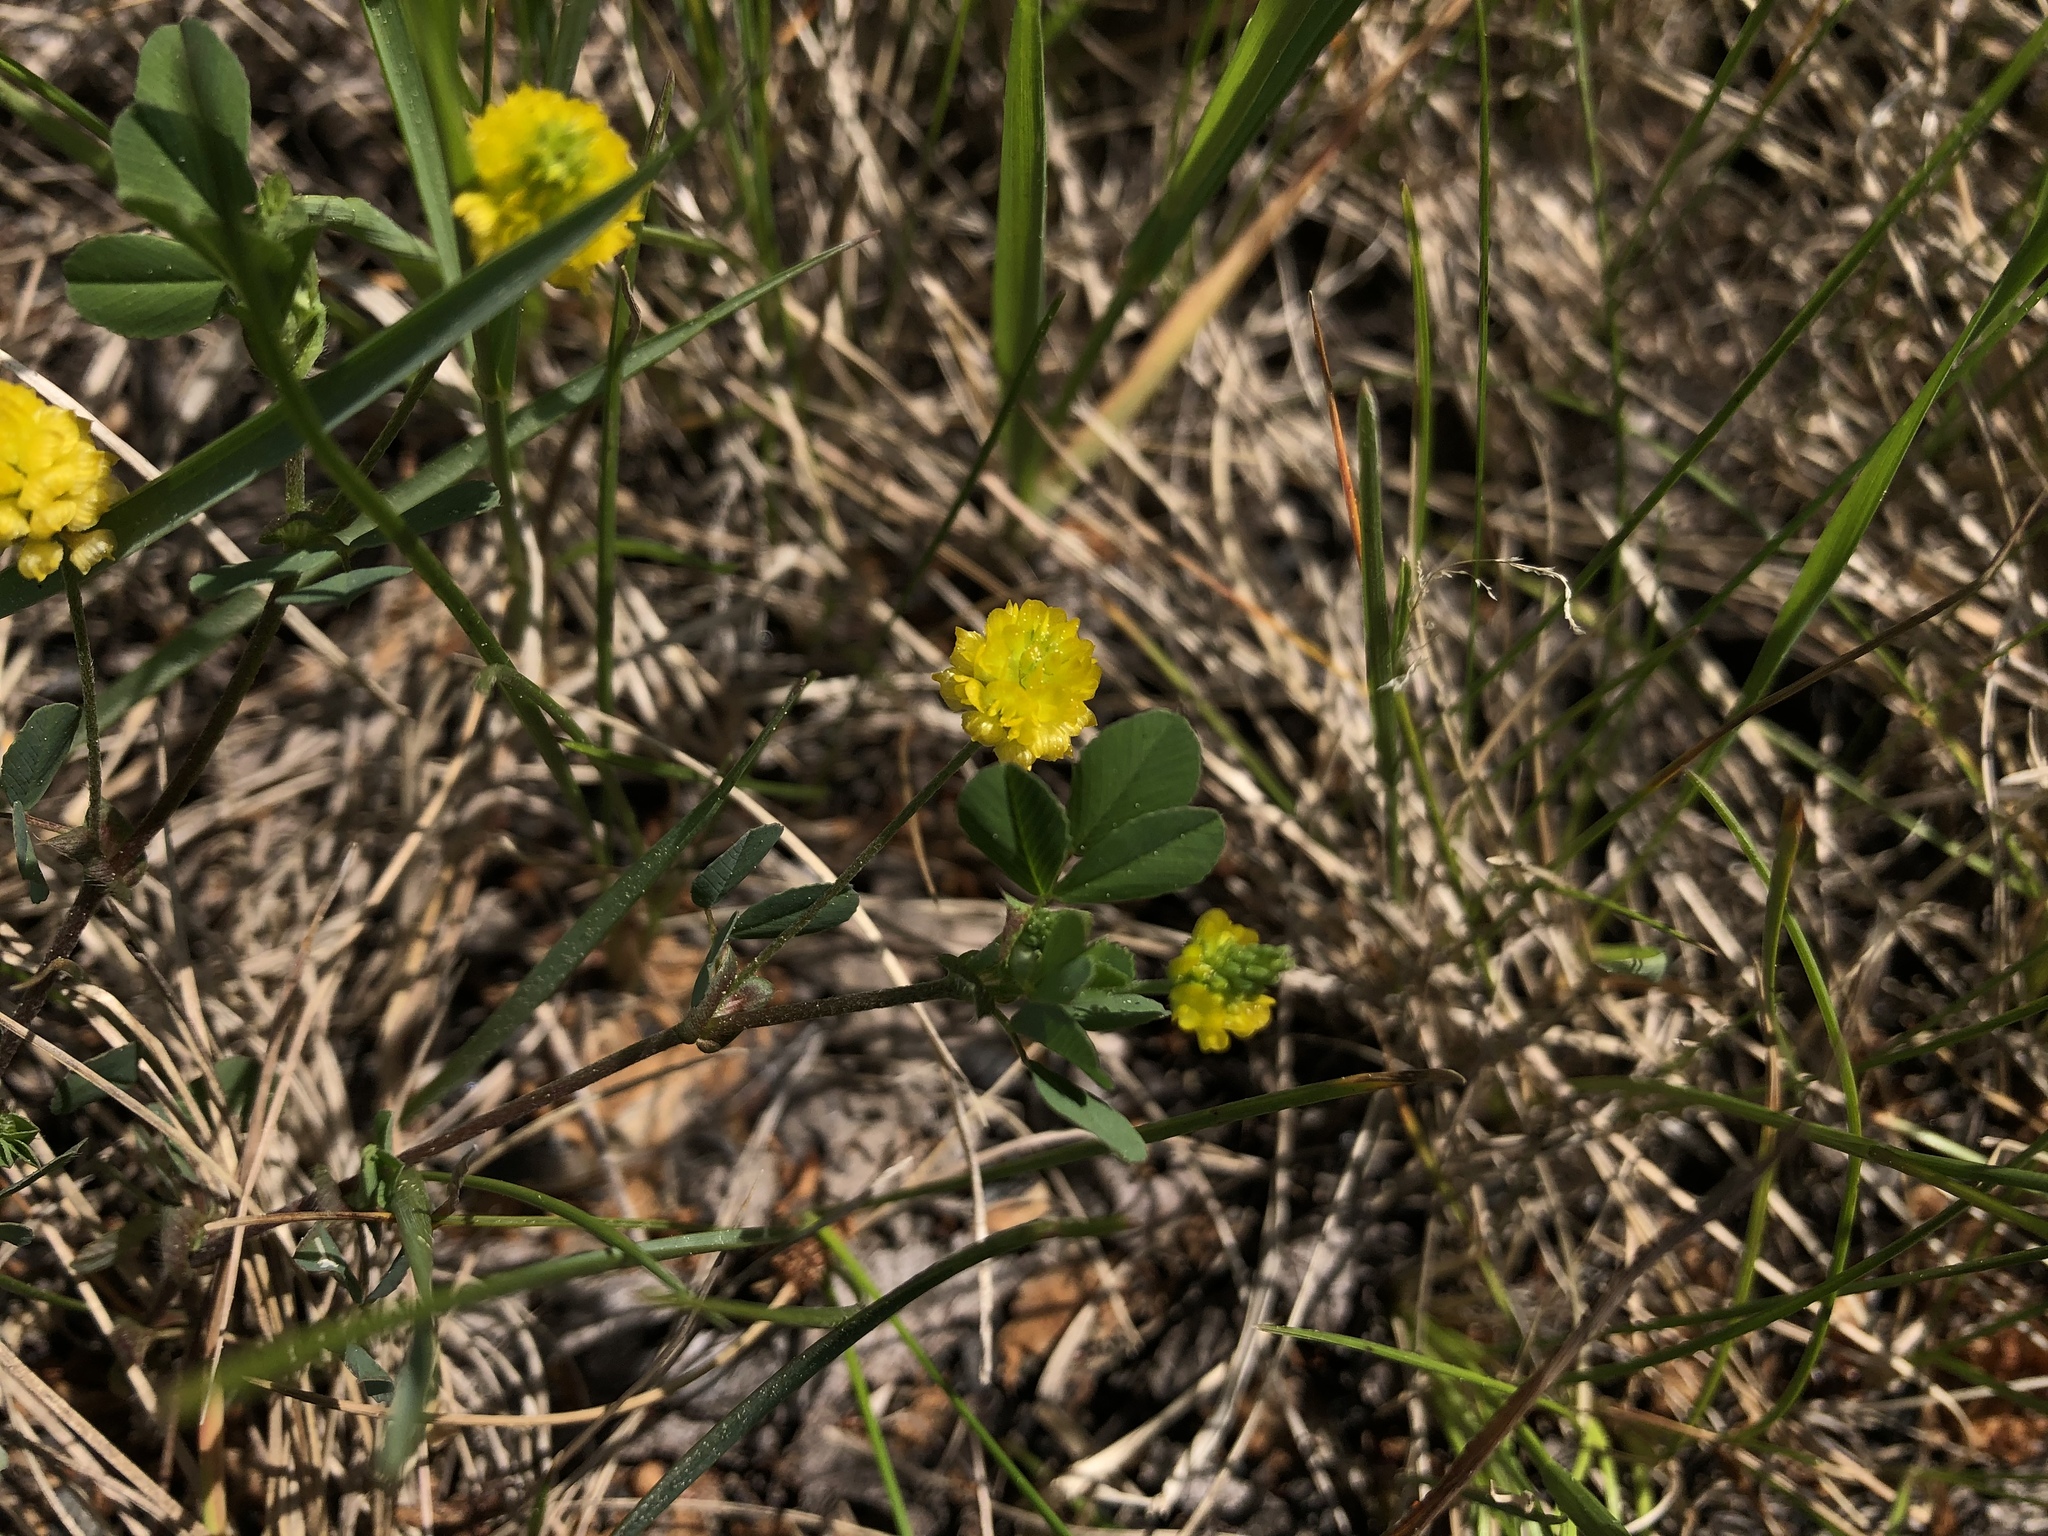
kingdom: Plantae
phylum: Tracheophyta
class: Magnoliopsida
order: Fabales
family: Fabaceae
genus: Trifolium
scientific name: Trifolium campestre
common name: Field clover
